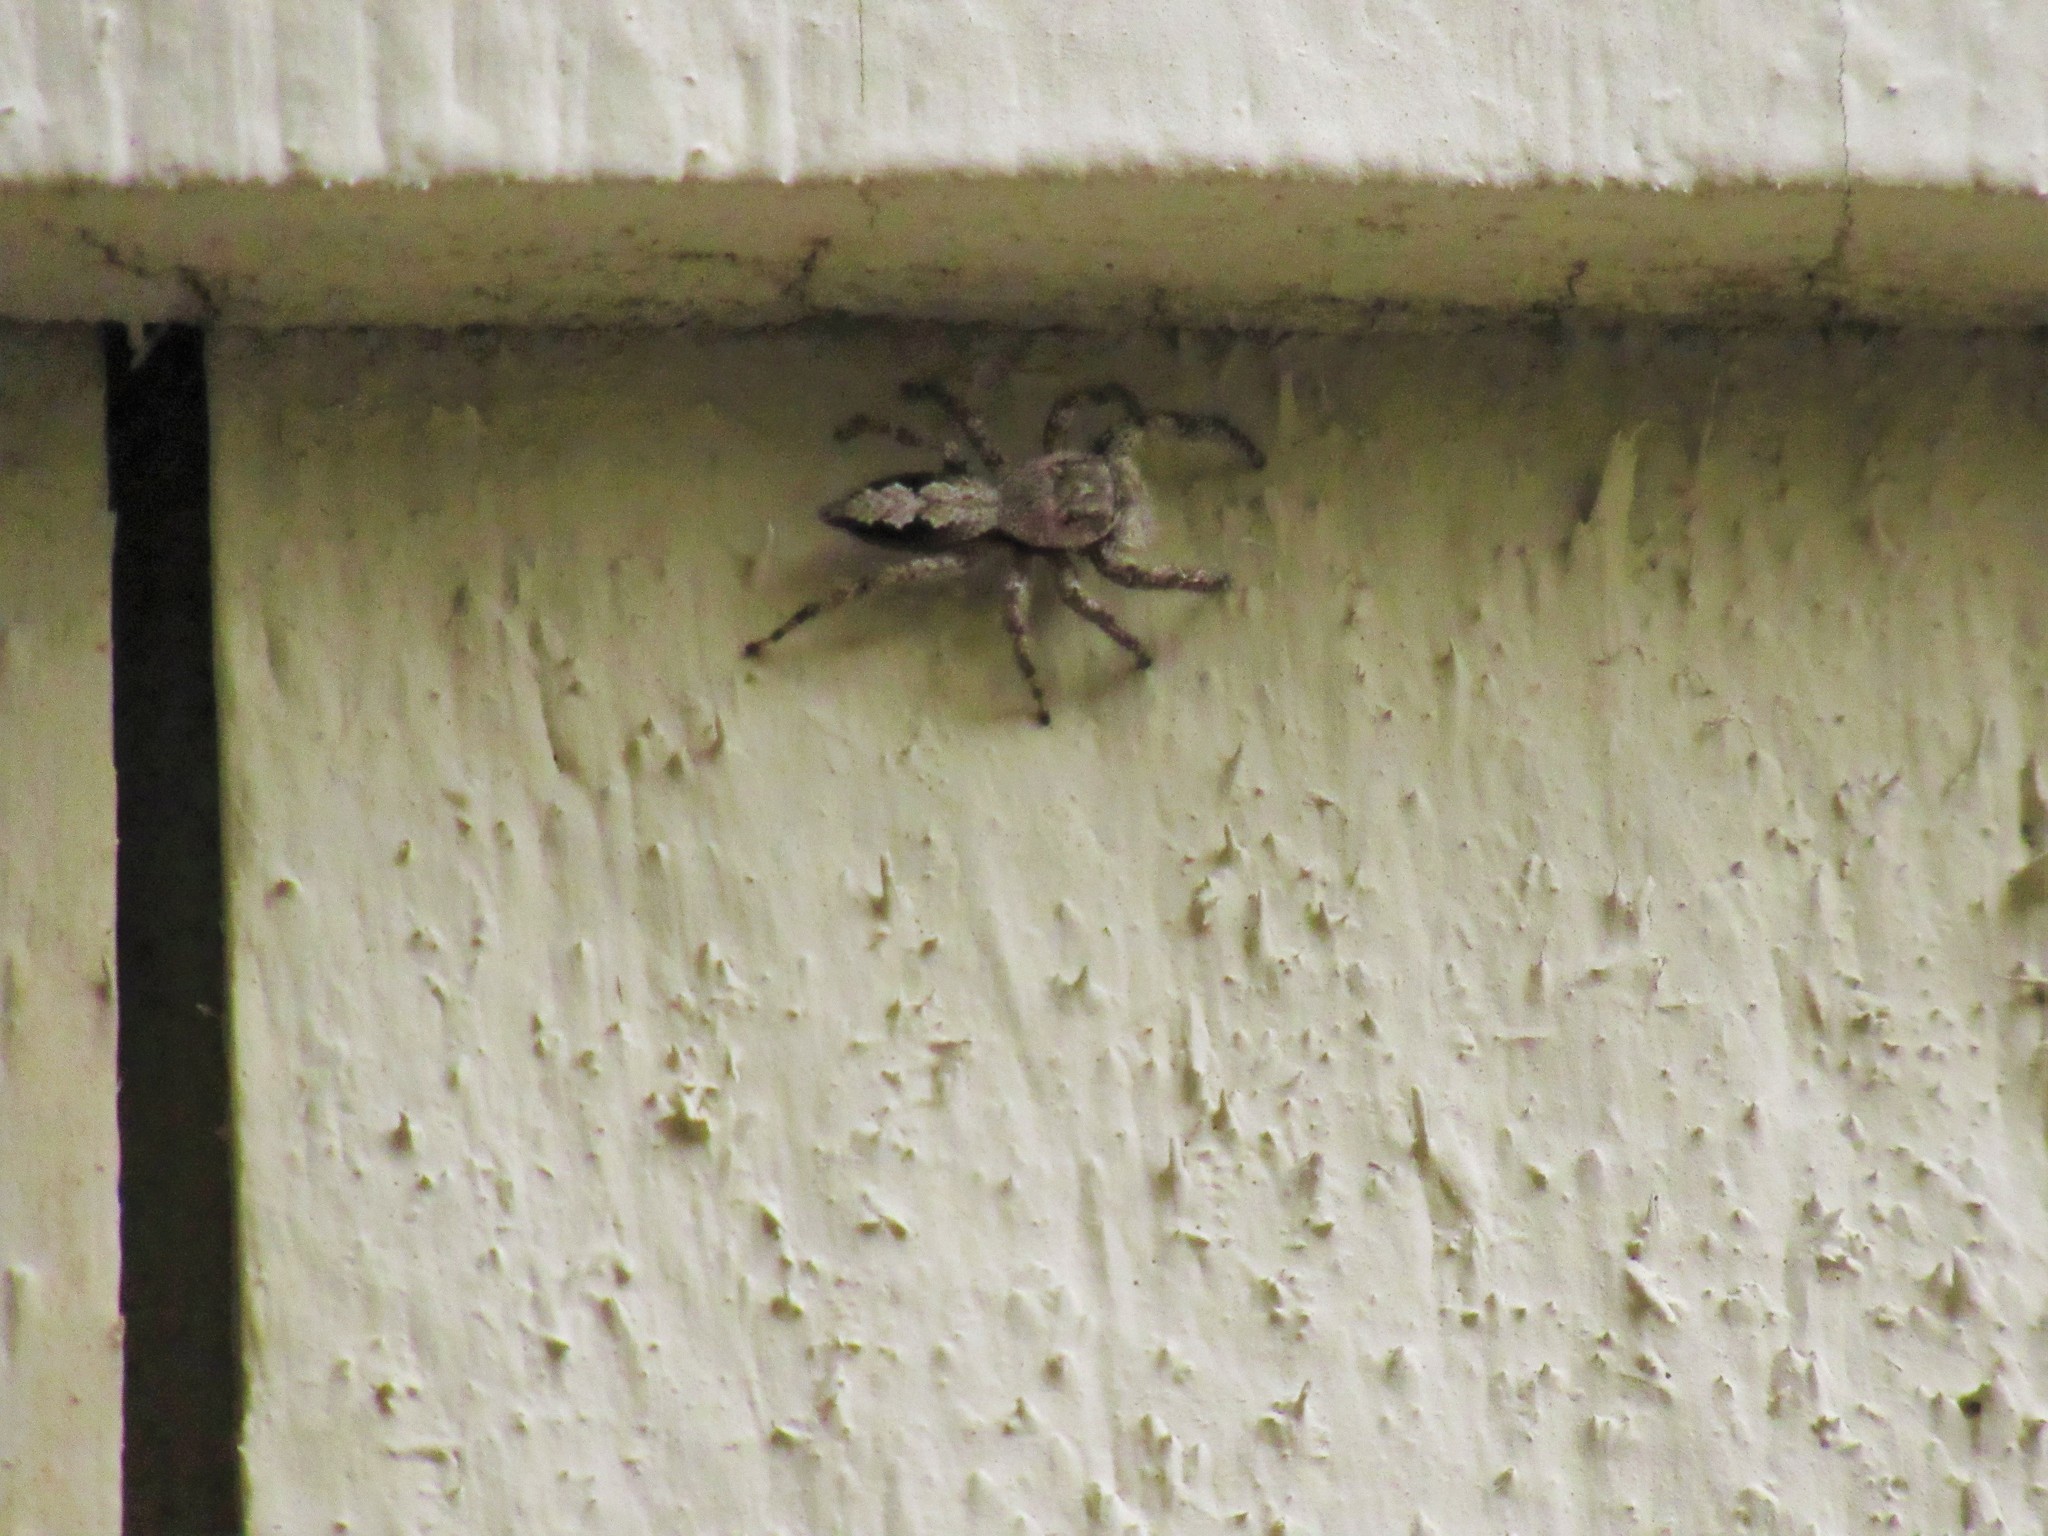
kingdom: Animalia
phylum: Arthropoda
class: Arachnida
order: Araneae
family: Salticidae
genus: Platycryptus
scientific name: Platycryptus undatus
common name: Tan jumping spider
